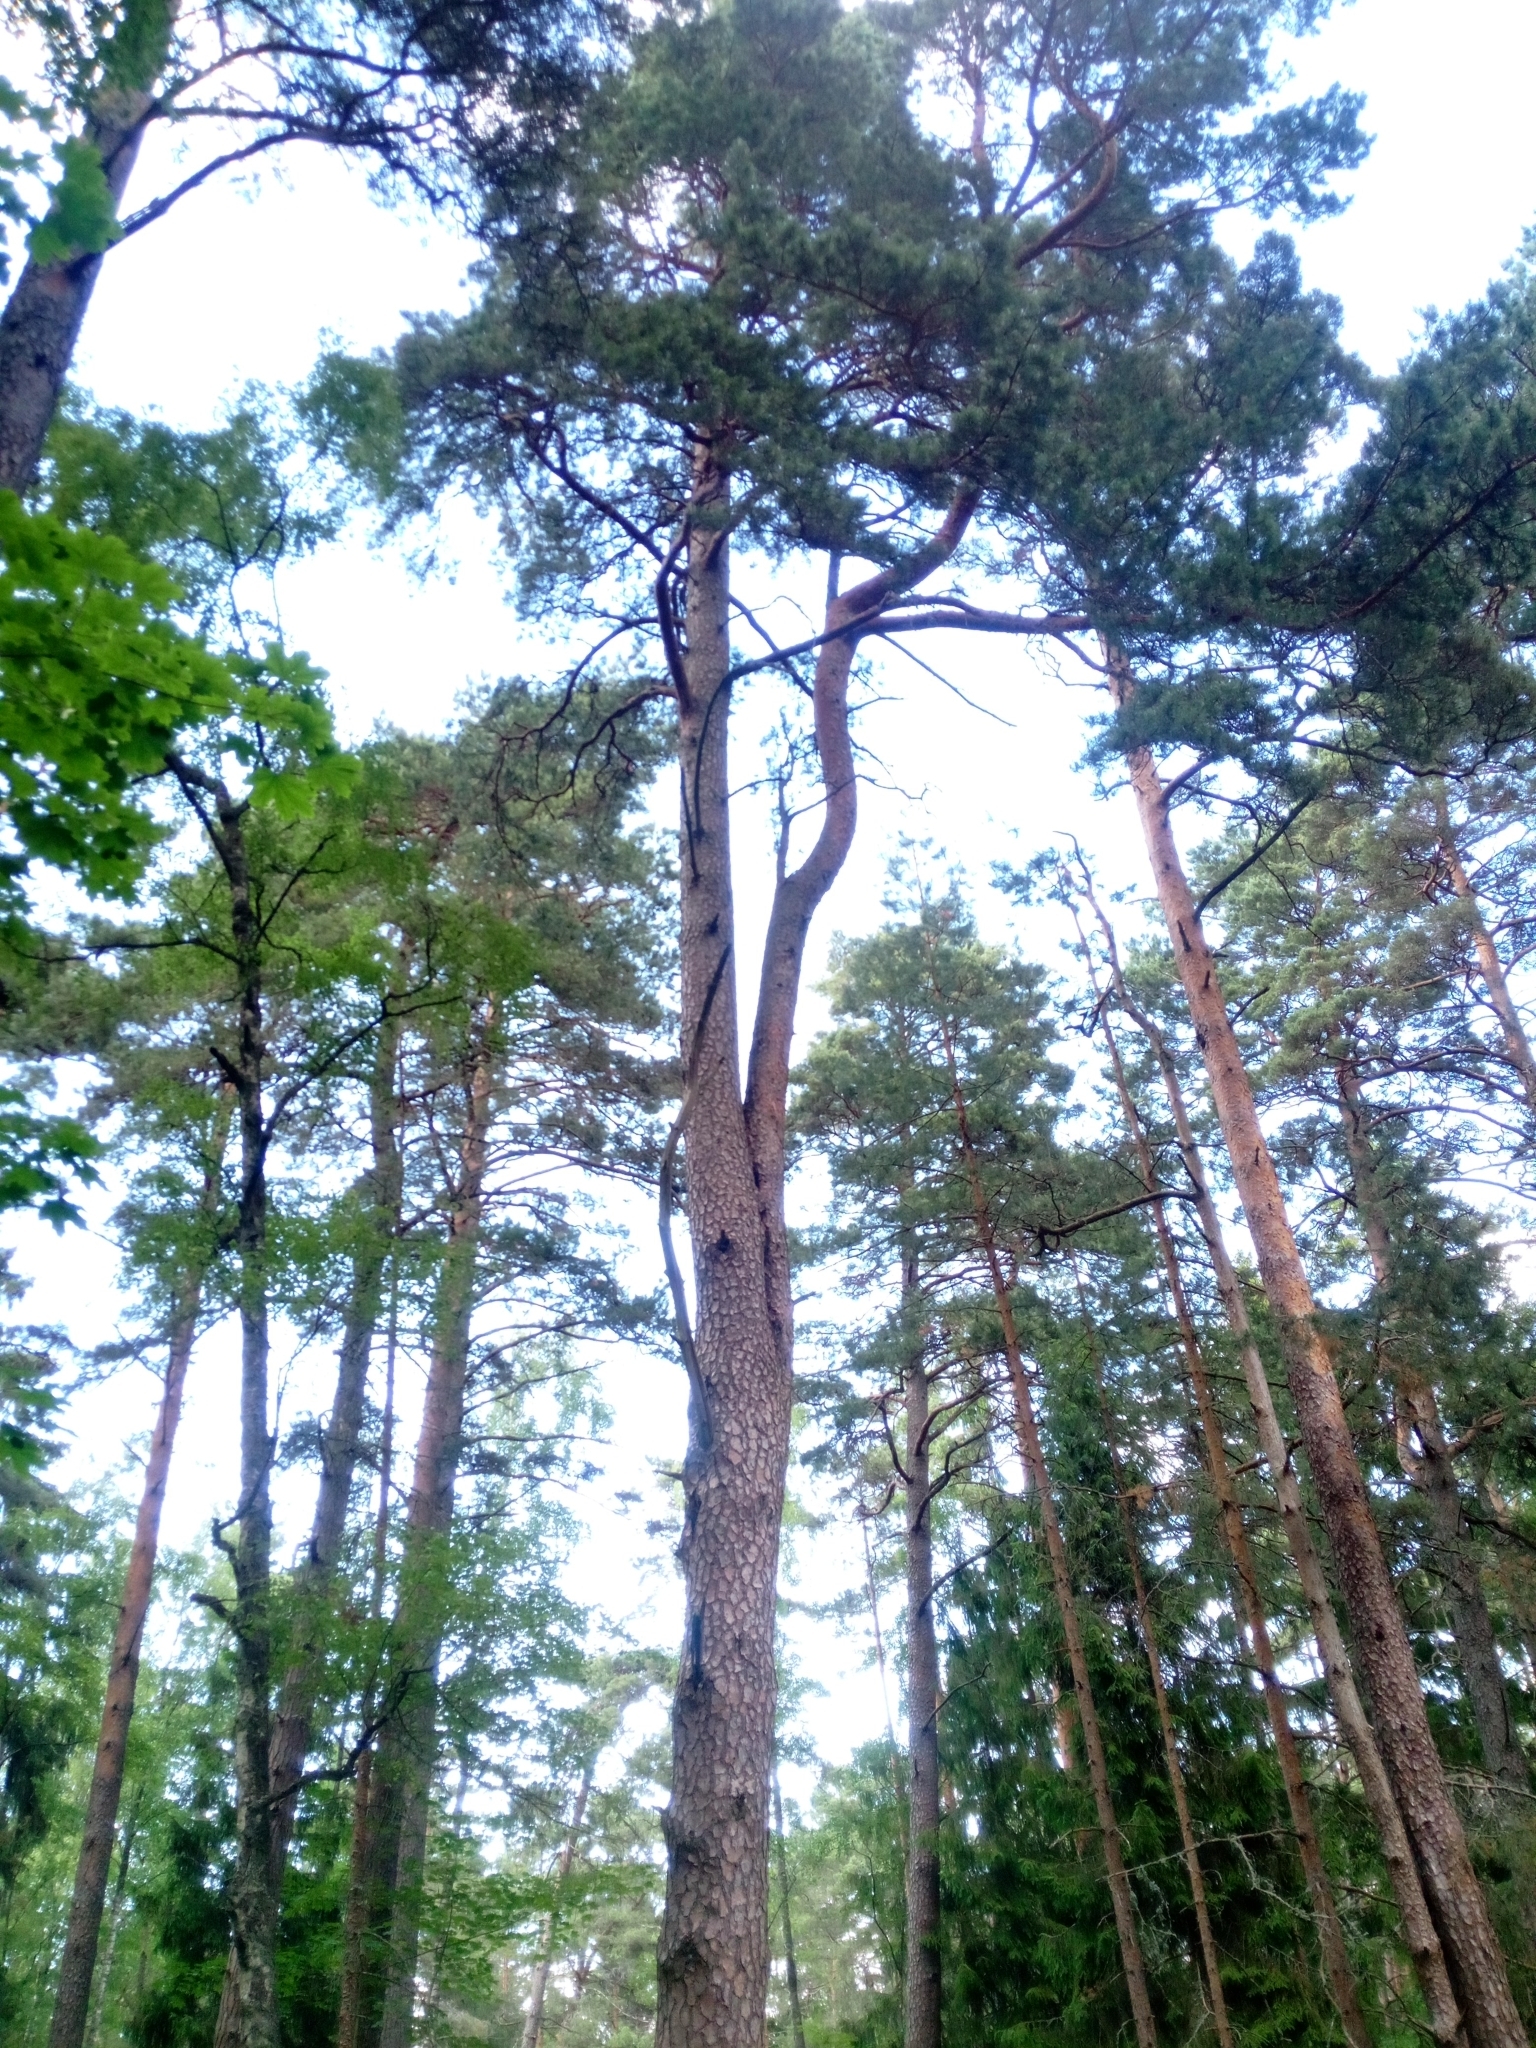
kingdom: Plantae
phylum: Tracheophyta
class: Pinopsida
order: Pinales
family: Pinaceae
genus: Pinus
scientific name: Pinus sylvestris
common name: Scots pine
